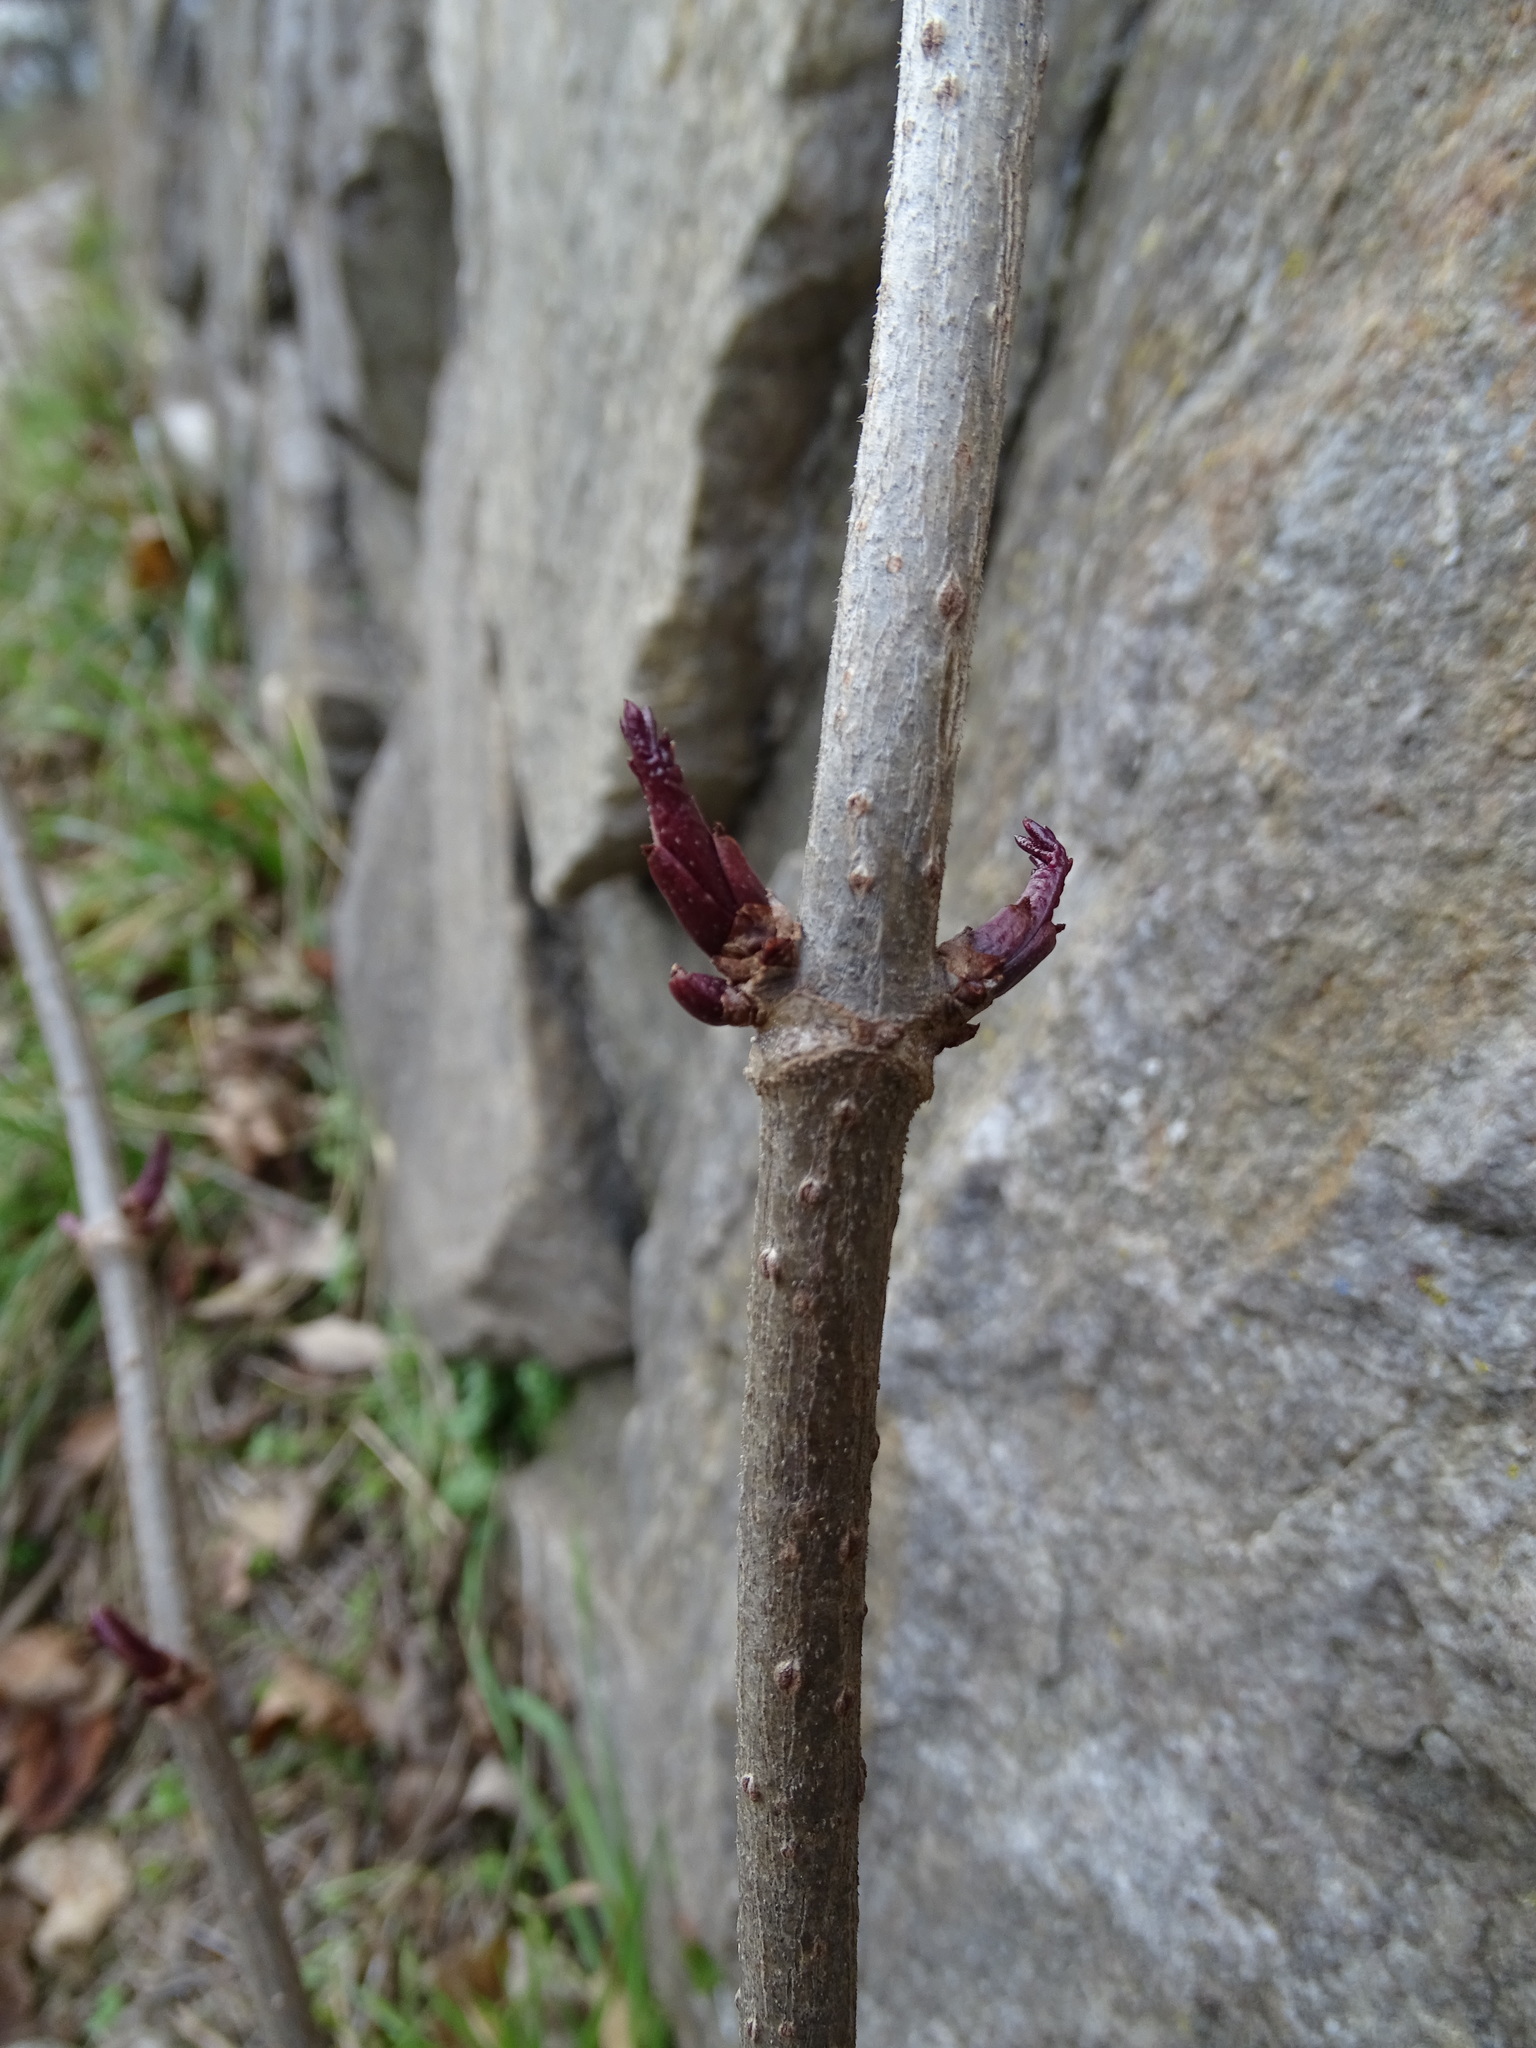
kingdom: Plantae
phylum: Tracheophyta
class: Magnoliopsida
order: Dipsacales
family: Viburnaceae
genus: Sambucus
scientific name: Sambucus nigra
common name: Elder
